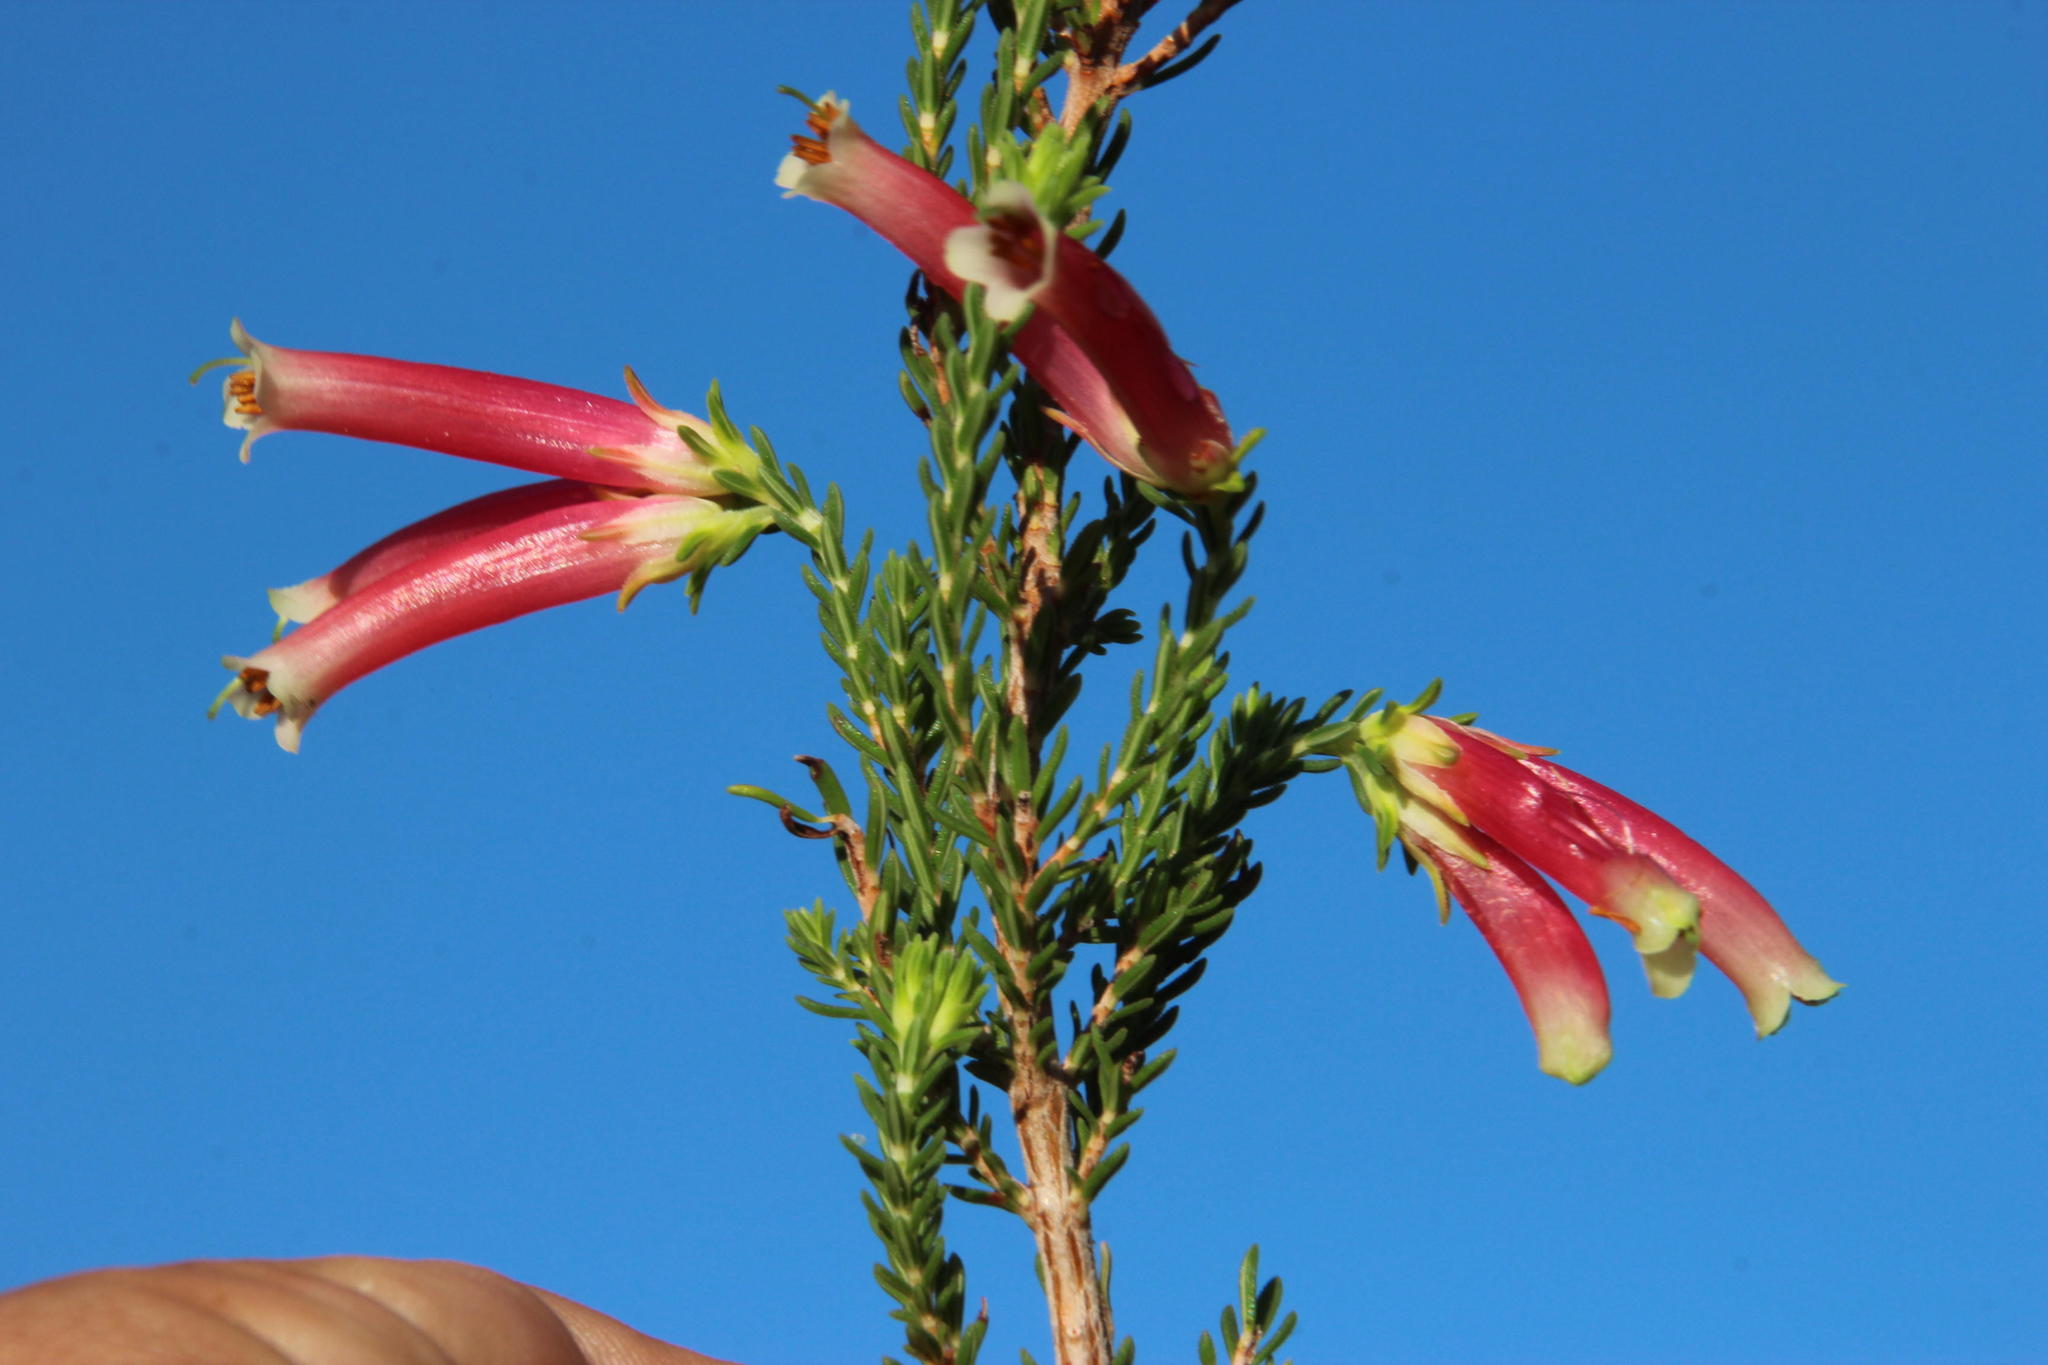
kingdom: Plantae
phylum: Tracheophyta
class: Magnoliopsida
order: Ericales
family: Ericaceae
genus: Erica
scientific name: Erica versicolor
